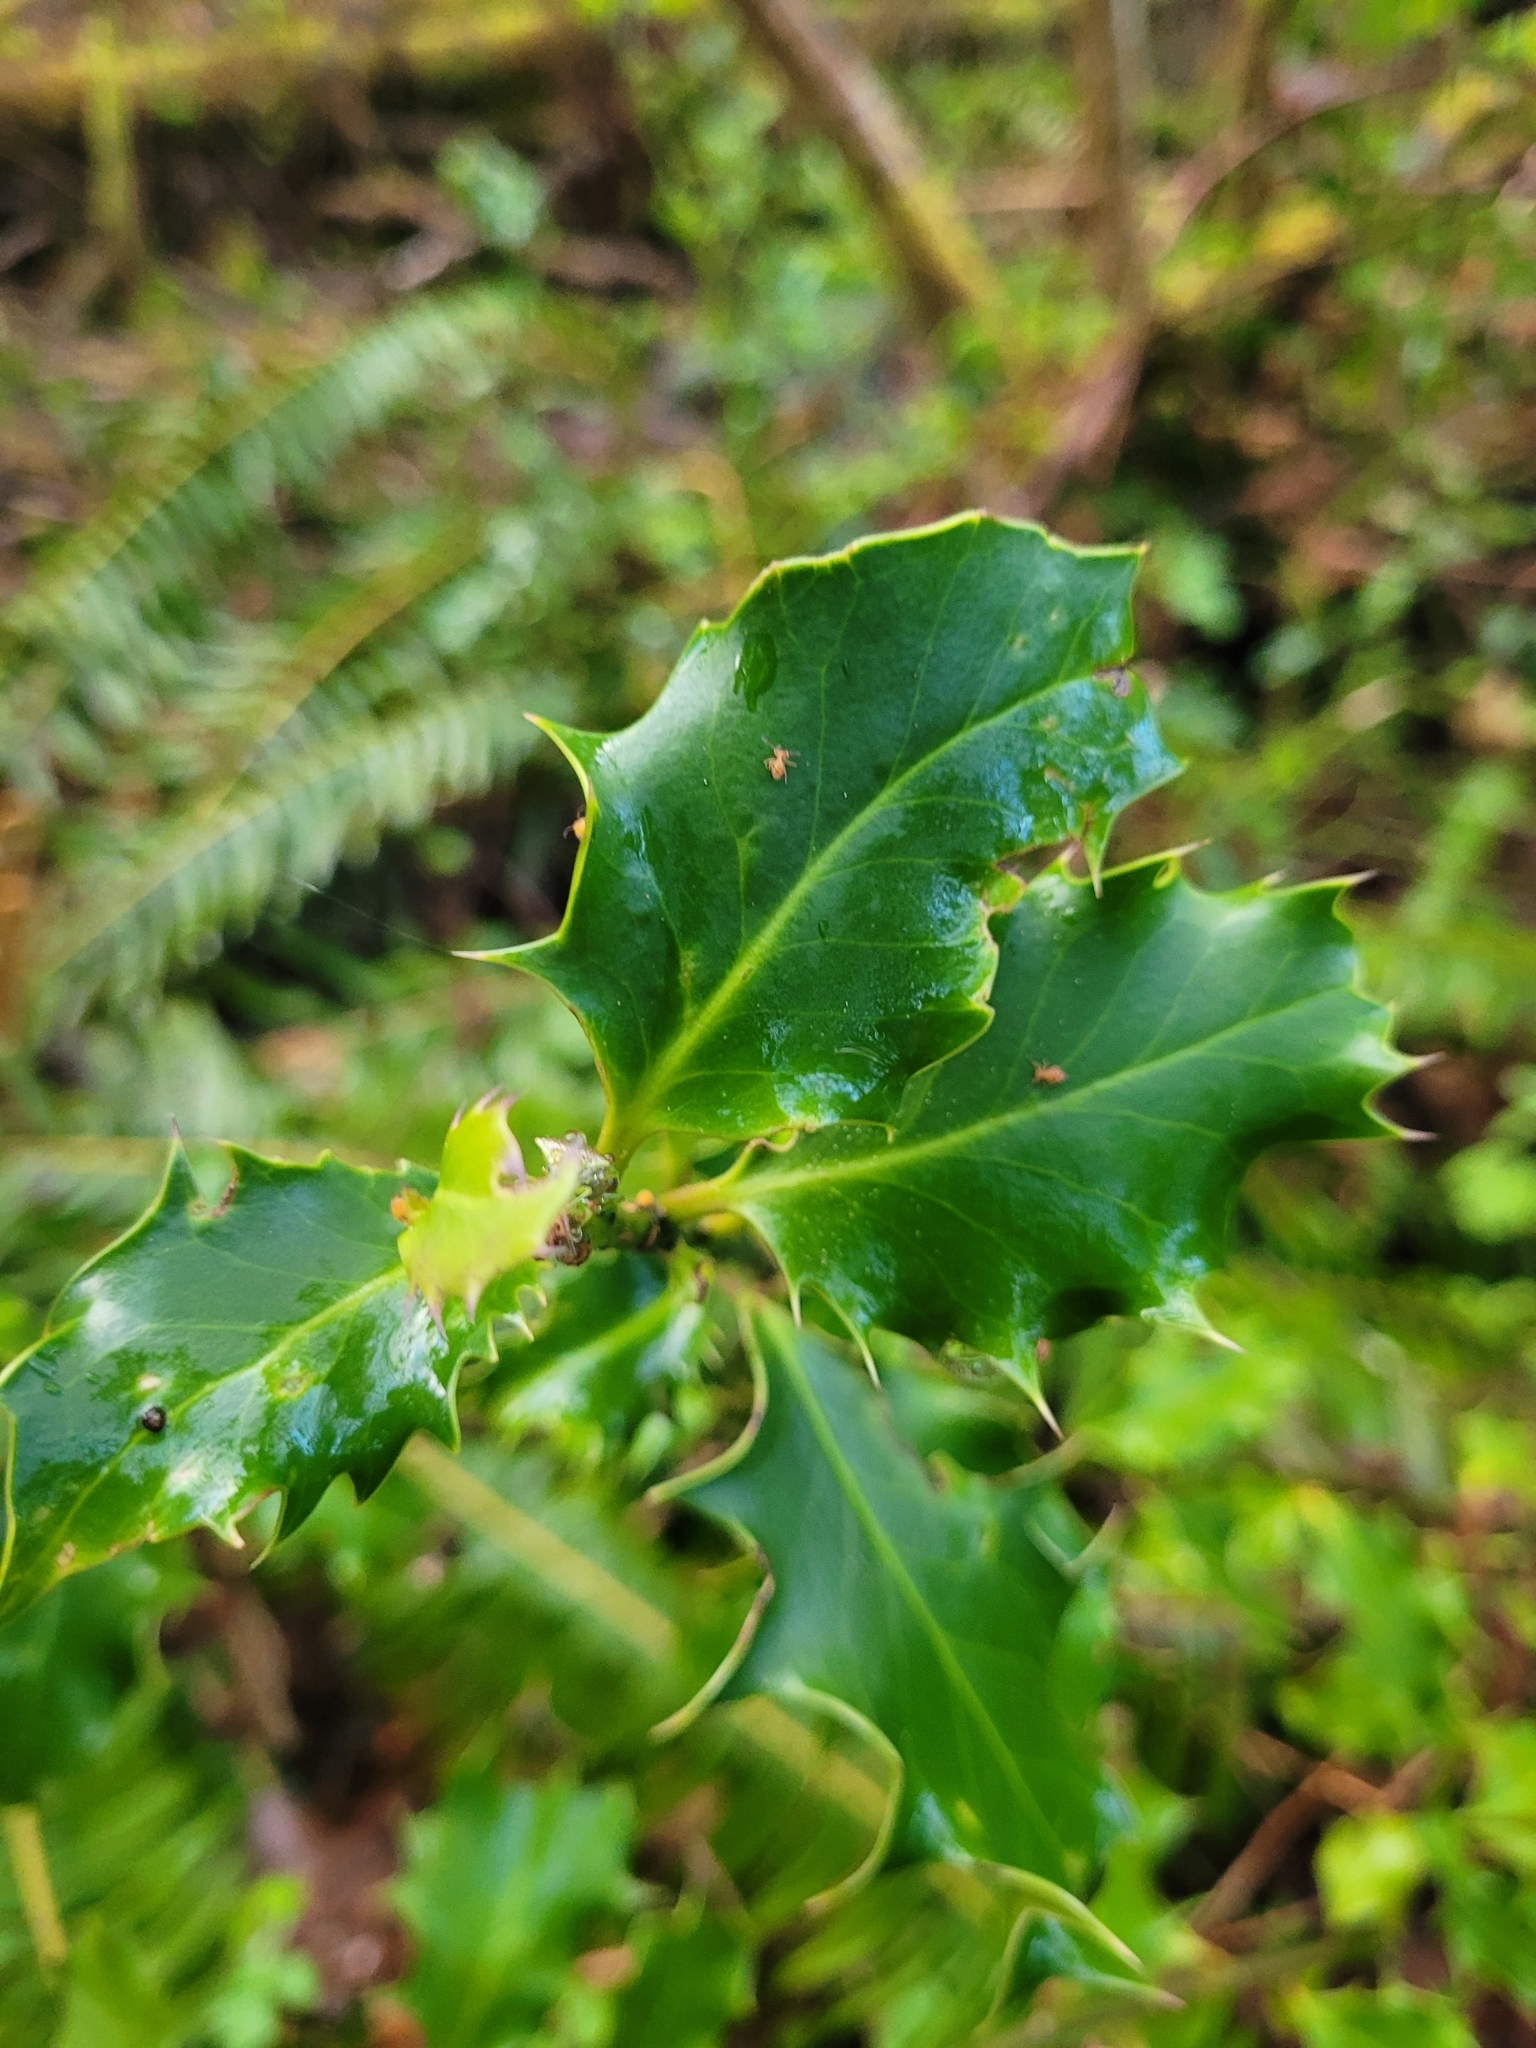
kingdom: Plantae
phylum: Tracheophyta
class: Magnoliopsida
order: Aquifoliales
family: Aquifoliaceae
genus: Ilex
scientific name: Ilex aquifolium
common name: English holly
